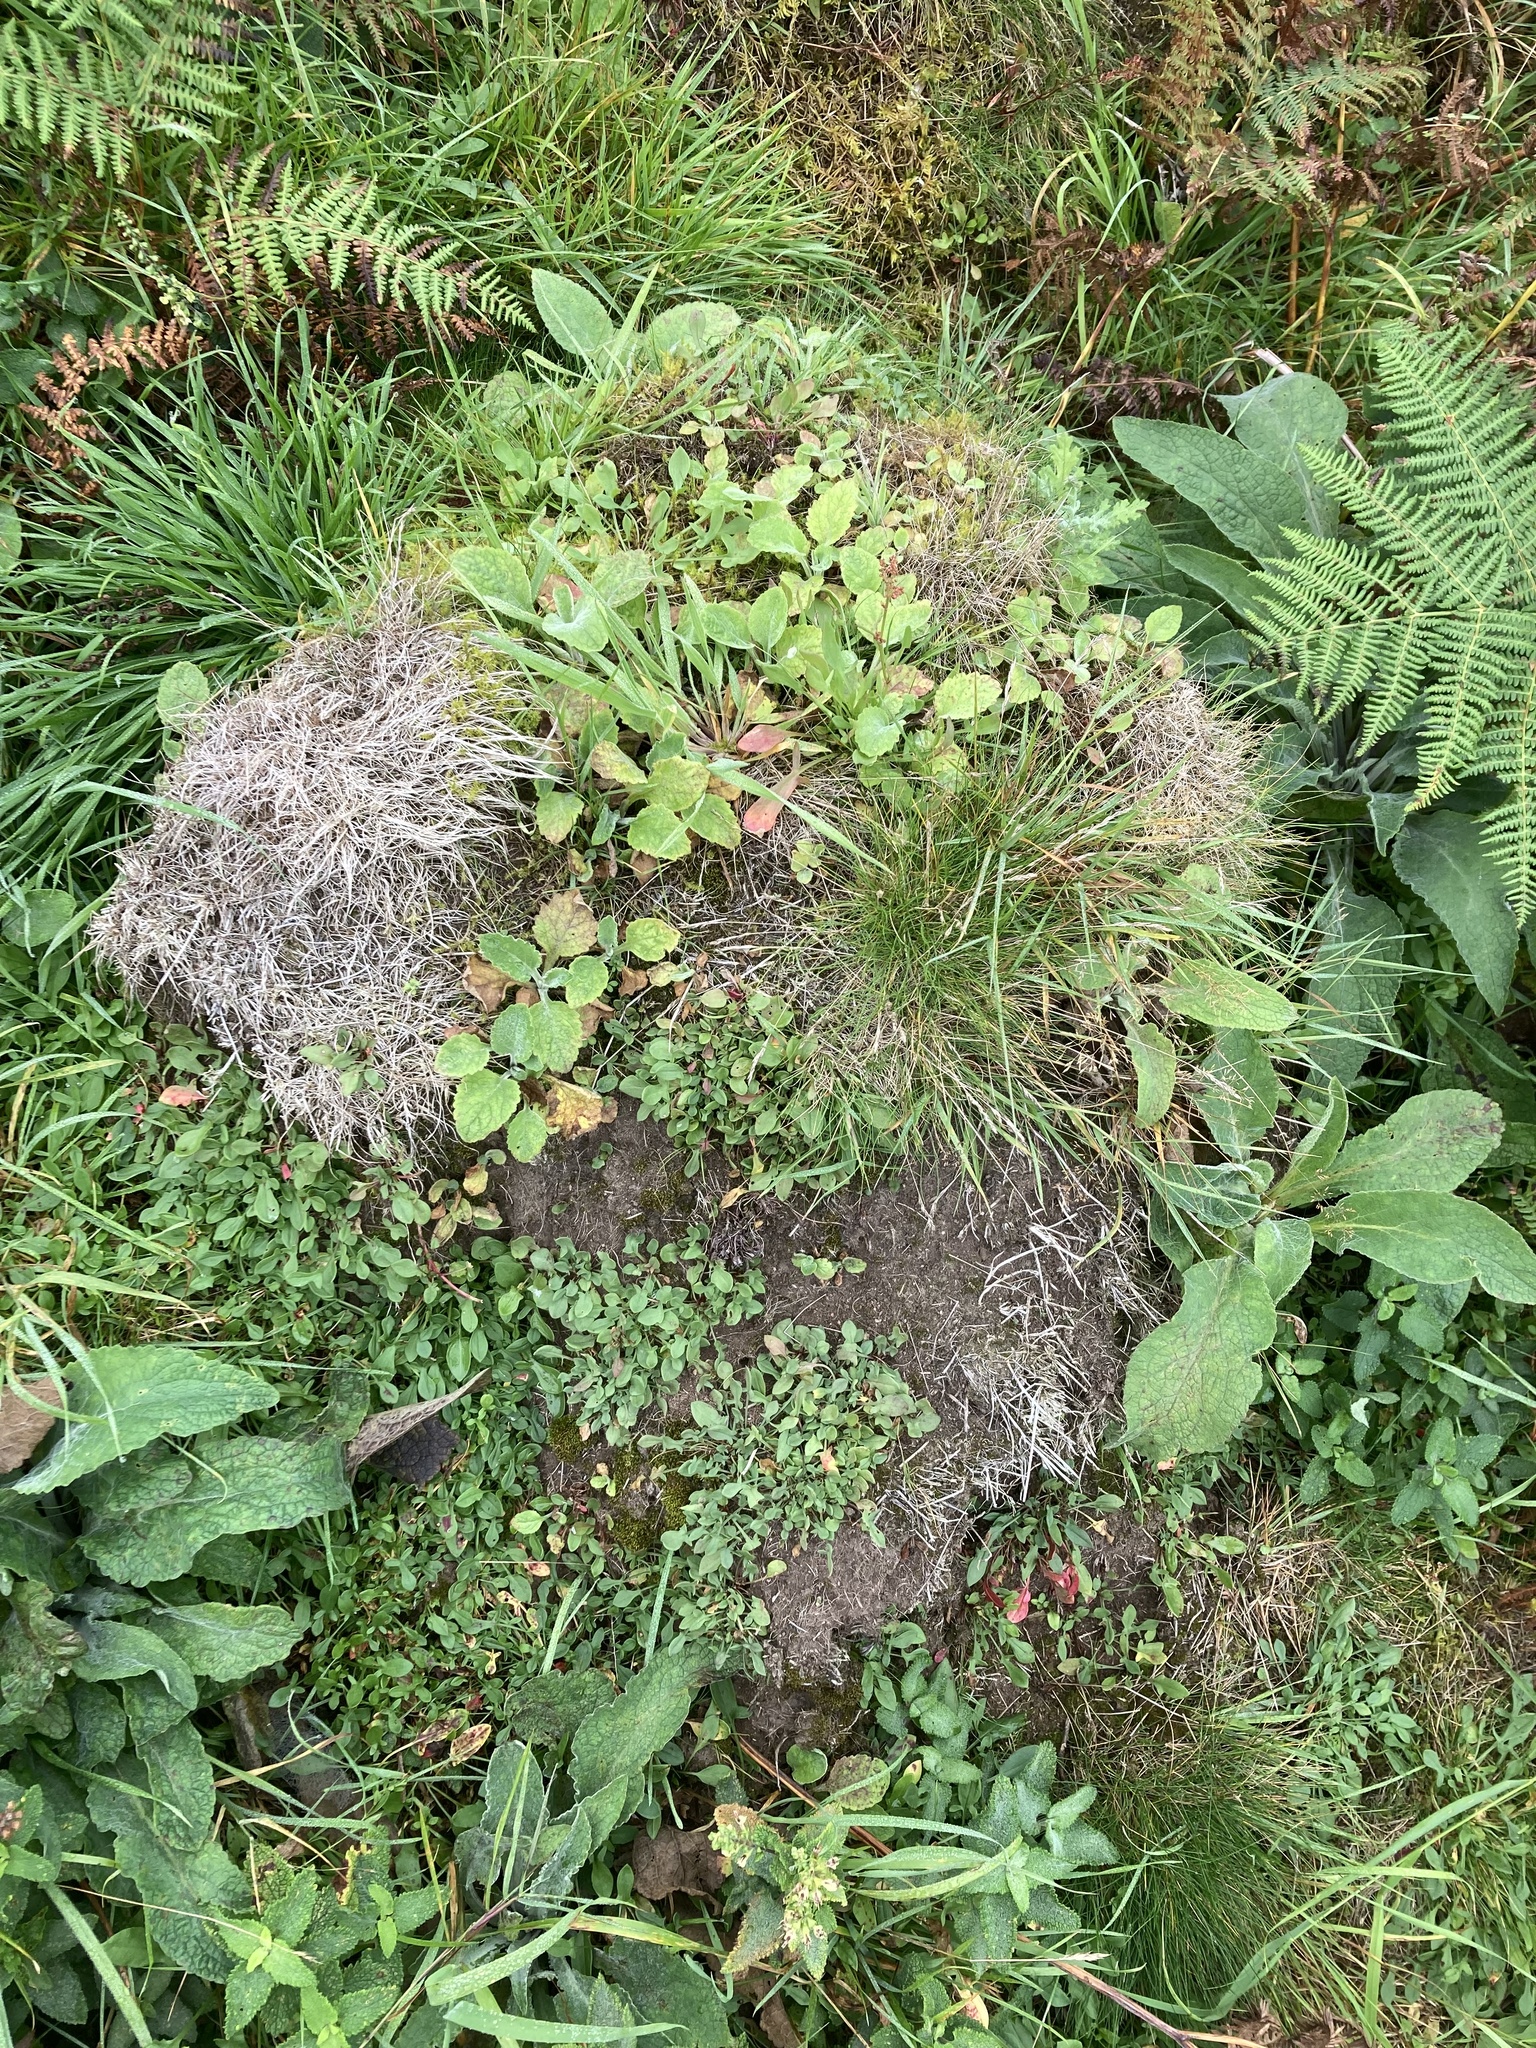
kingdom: Animalia
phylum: Arthropoda
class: Insecta
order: Hymenoptera
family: Formicidae
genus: Lasius
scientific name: Lasius flavus
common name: Blond field ant
